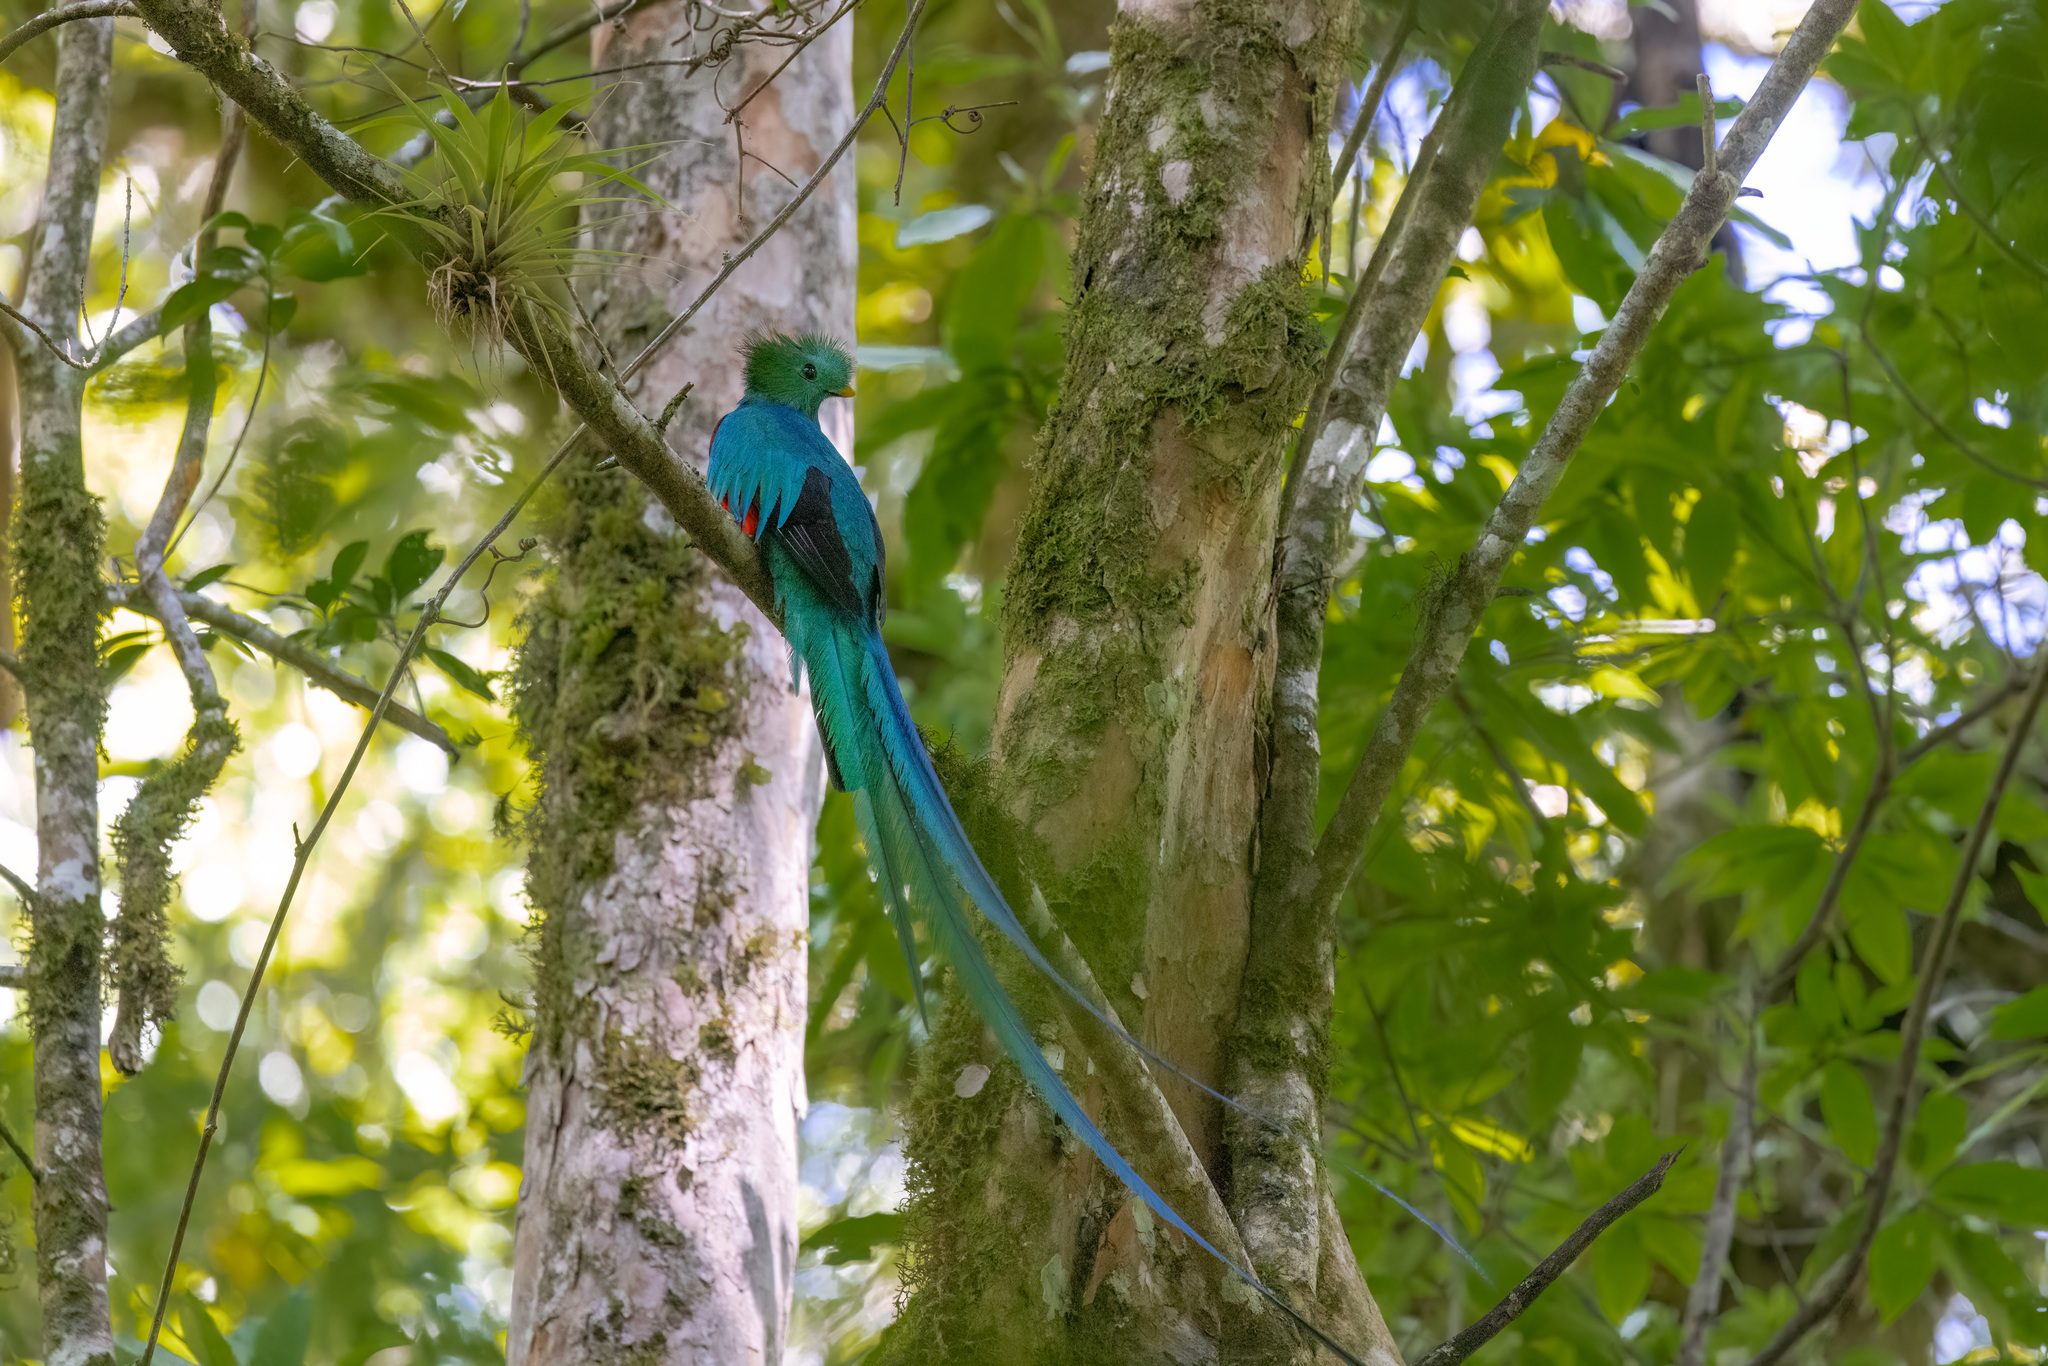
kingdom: Animalia
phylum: Chordata
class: Aves
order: Trogoniformes
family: Trogonidae
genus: Pharomachrus
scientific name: Pharomachrus mocinno
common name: Resplendent quetzal
